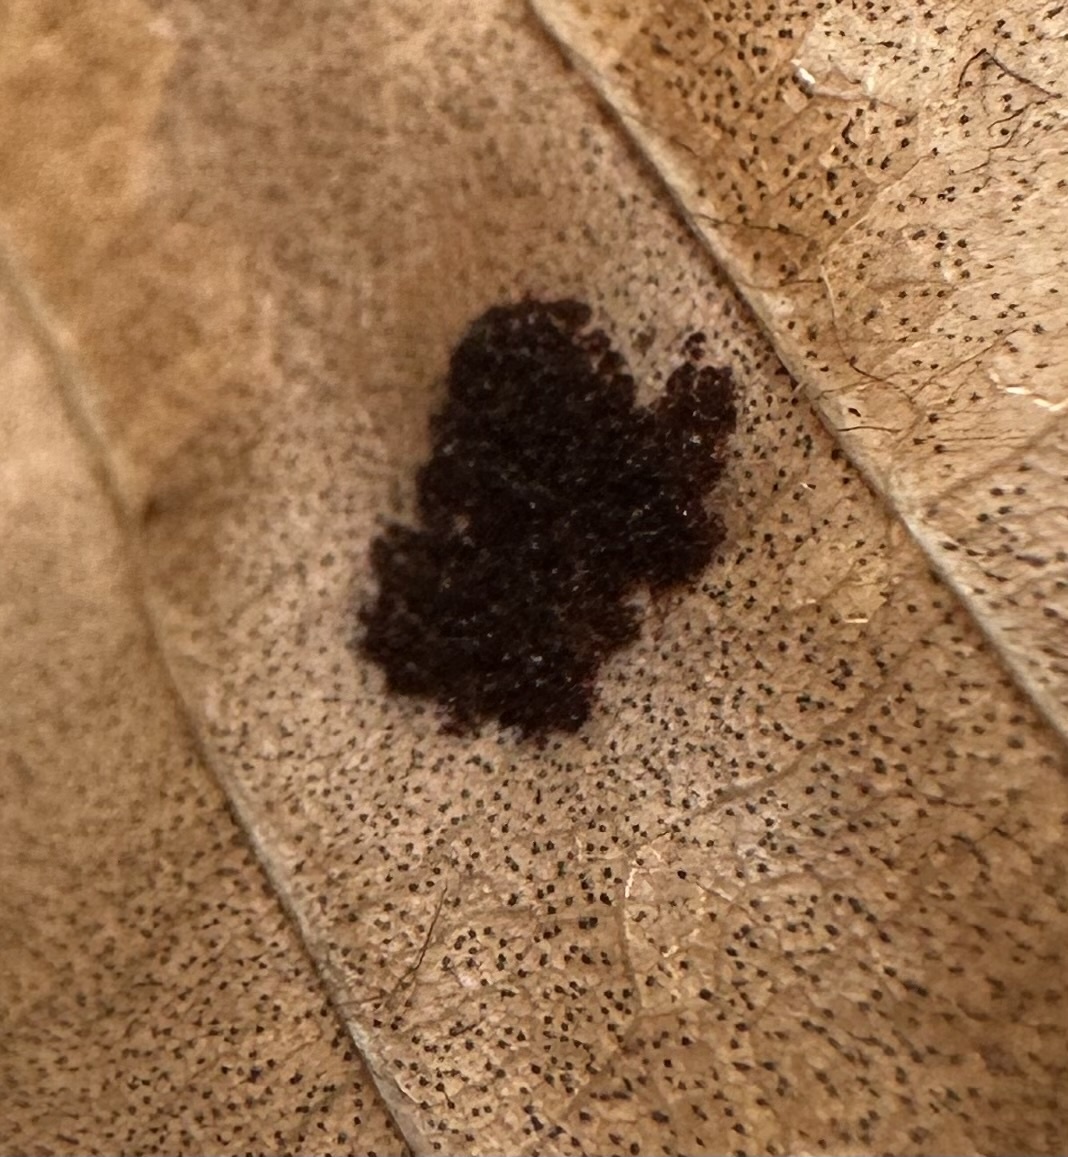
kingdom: Animalia
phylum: Arthropoda
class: Arachnida
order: Trombidiformes
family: Eriophyidae
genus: Acalitus
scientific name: Acalitus
